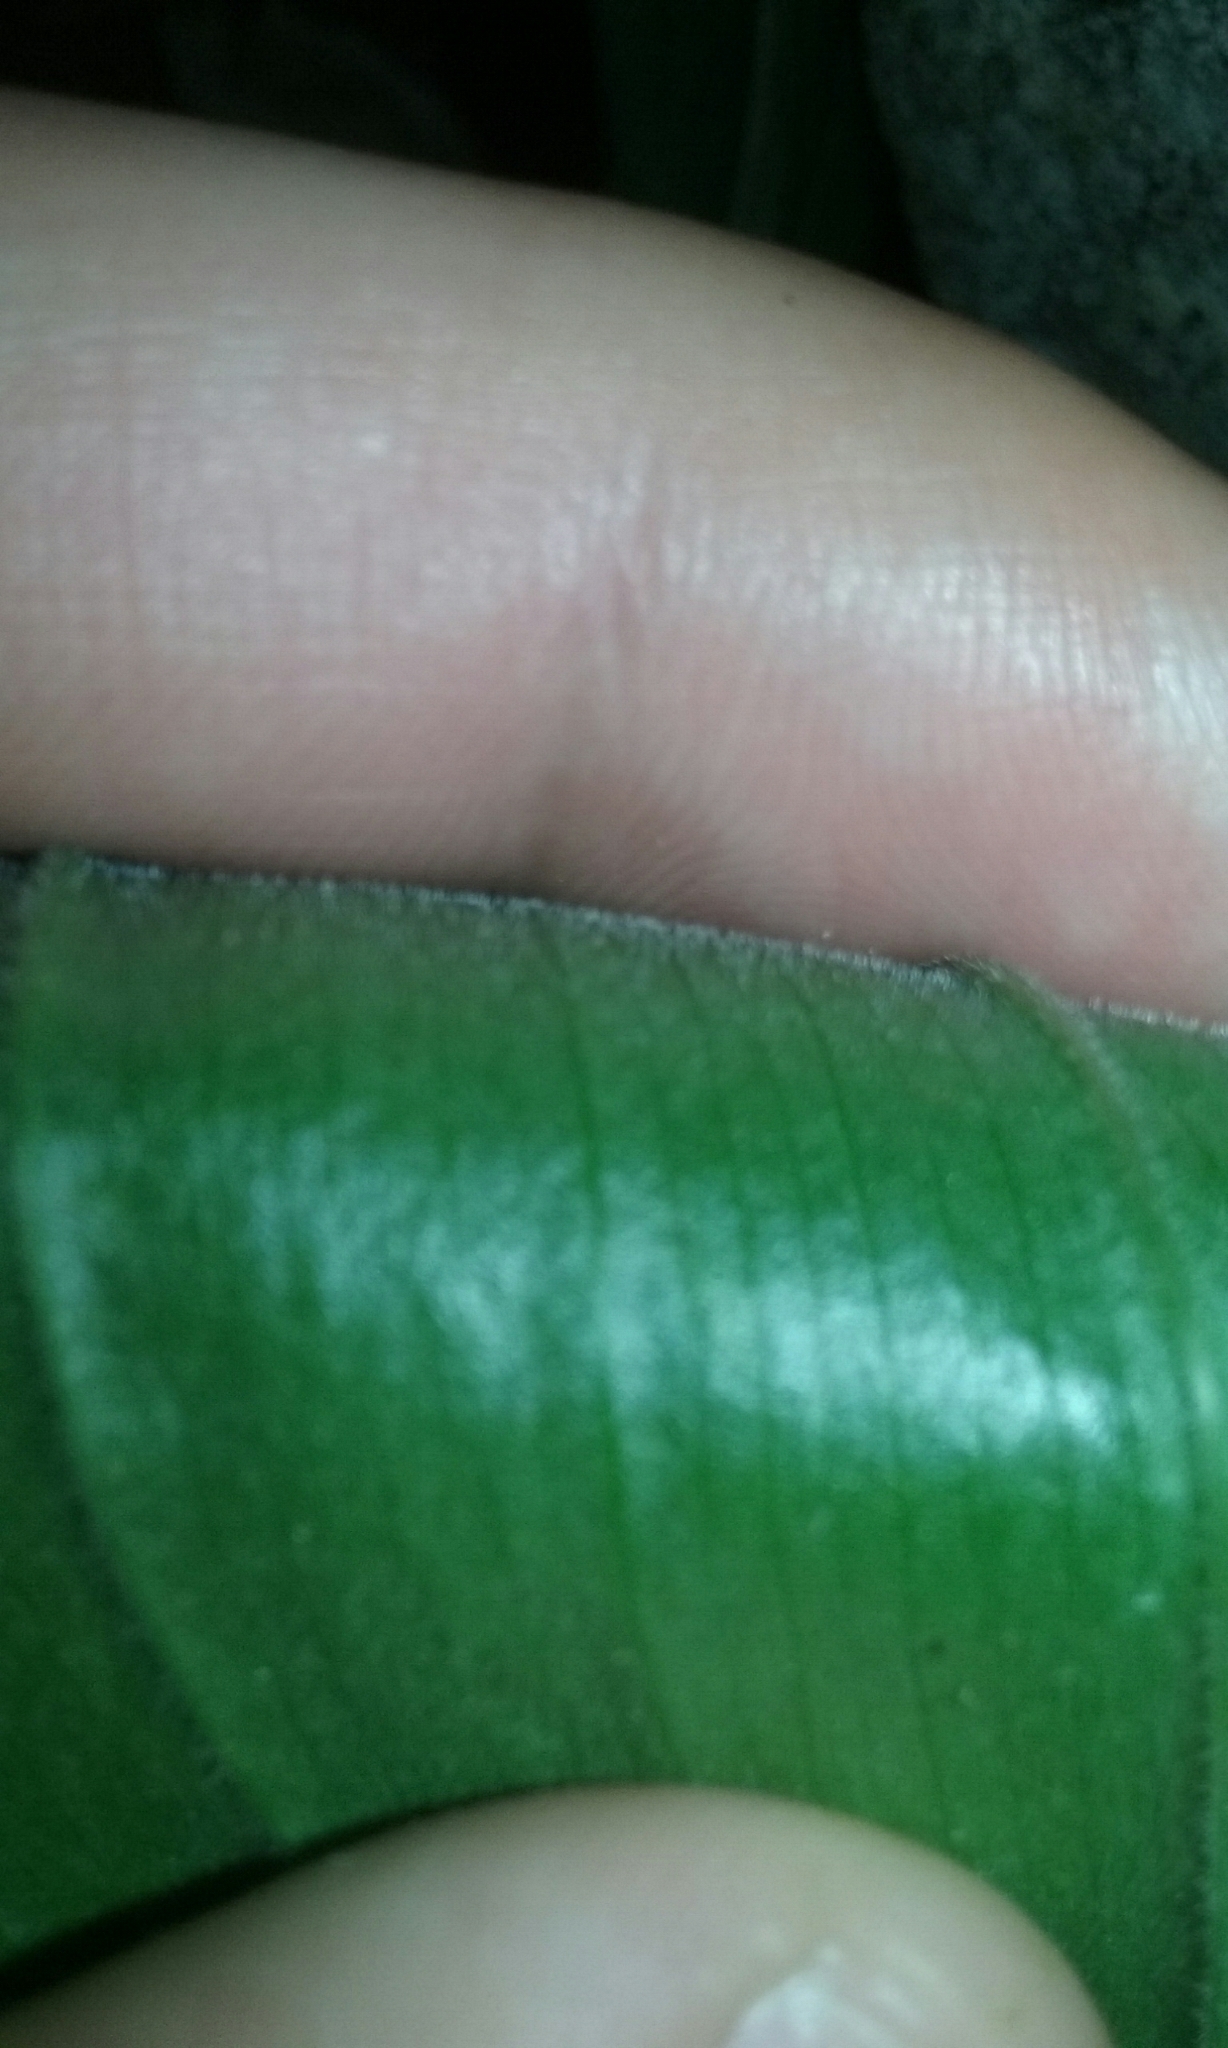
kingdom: Plantae
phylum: Tracheophyta
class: Liliopsida
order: Asparagales
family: Asparagaceae
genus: Maianthemum
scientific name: Maianthemum racemosum
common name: False spikenard
